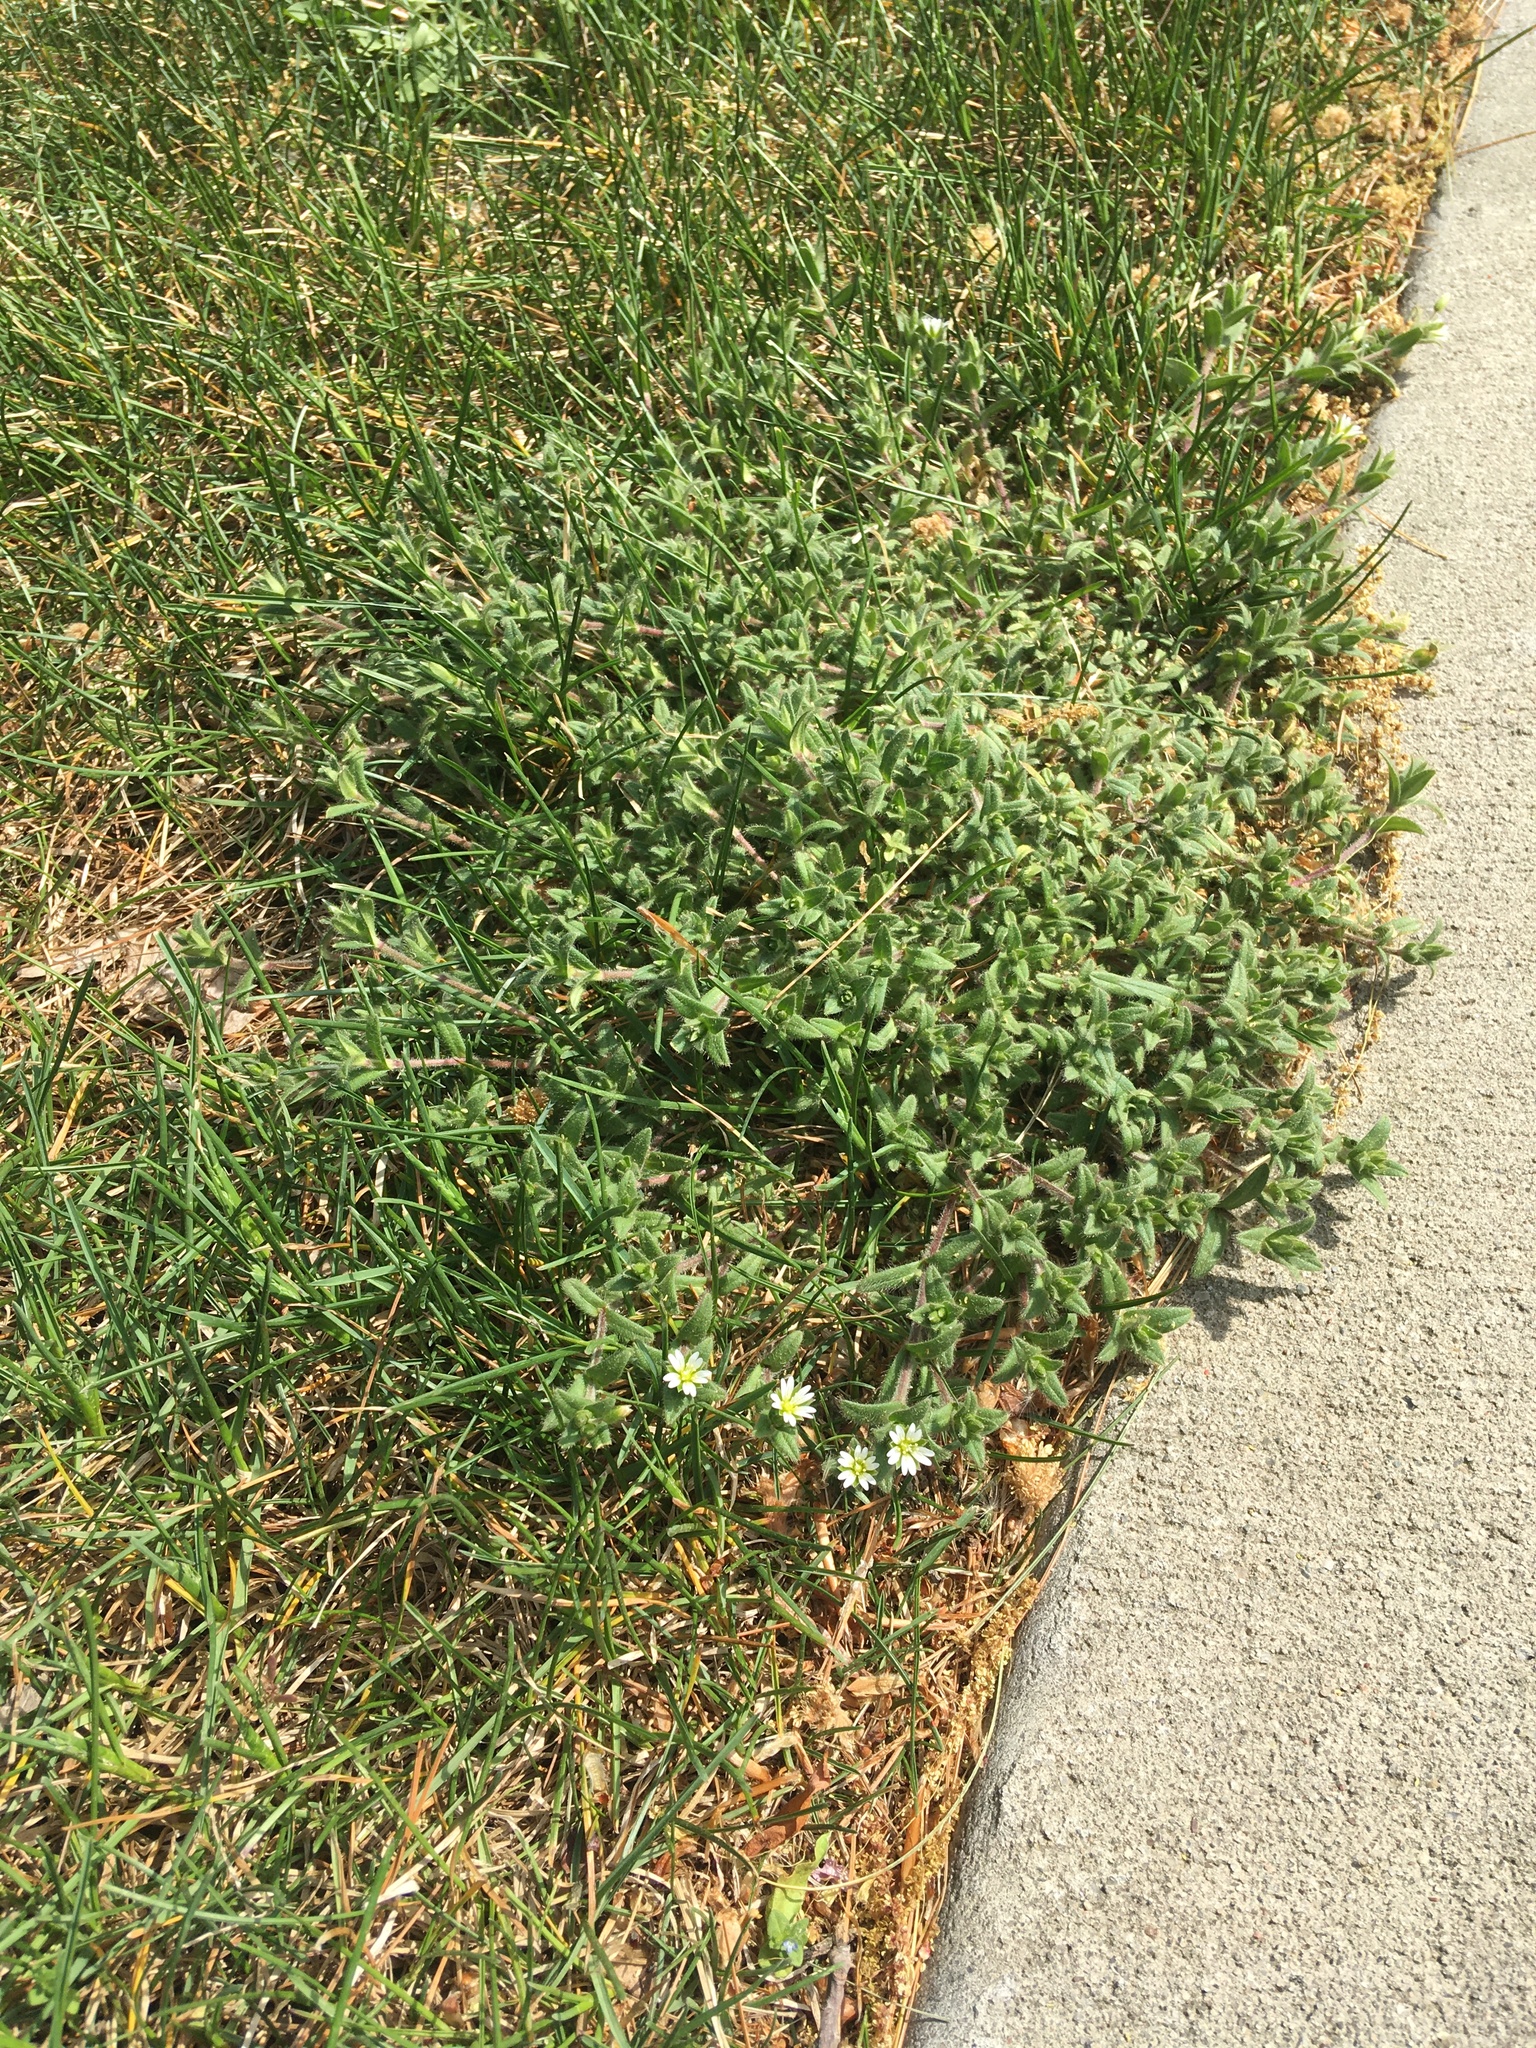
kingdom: Plantae
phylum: Tracheophyta
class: Magnoliopsida
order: Caryophyllales
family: Caryophyllaceae
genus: Cerastium
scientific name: Cerastium fontanum
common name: Common mouse-ear
